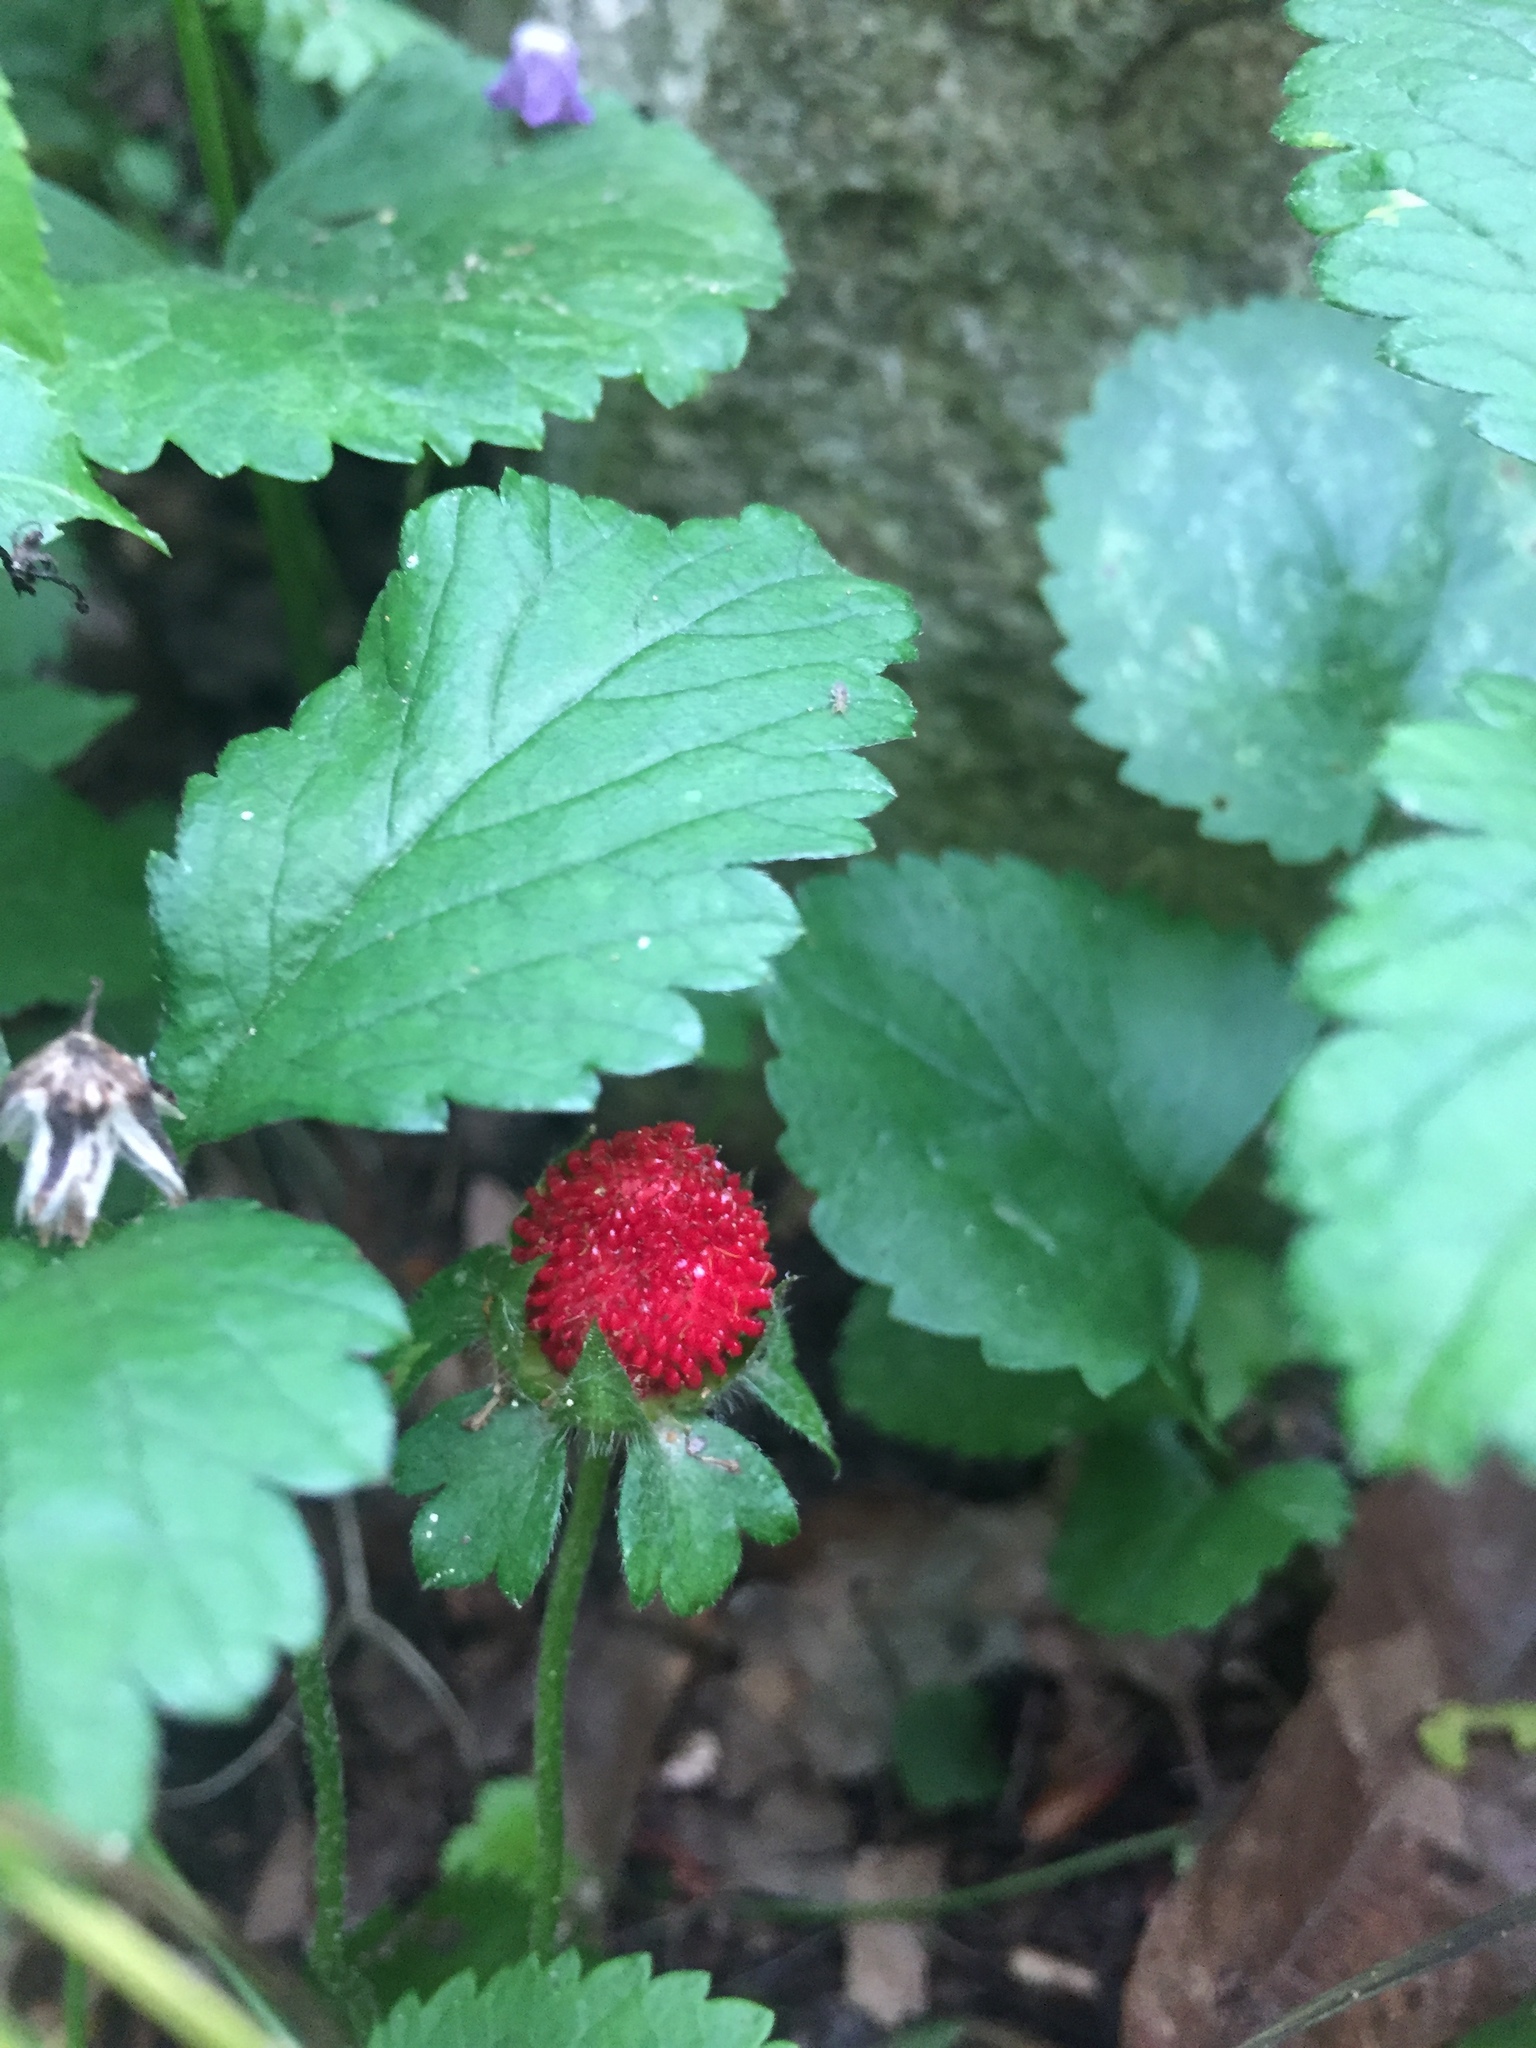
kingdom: Plantae
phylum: Tracheophyta
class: Magnoliopsida
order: Rosales
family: Rosaceae
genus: Potentilla
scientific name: Potentilla indica
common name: Yellow-flowered strawberry
